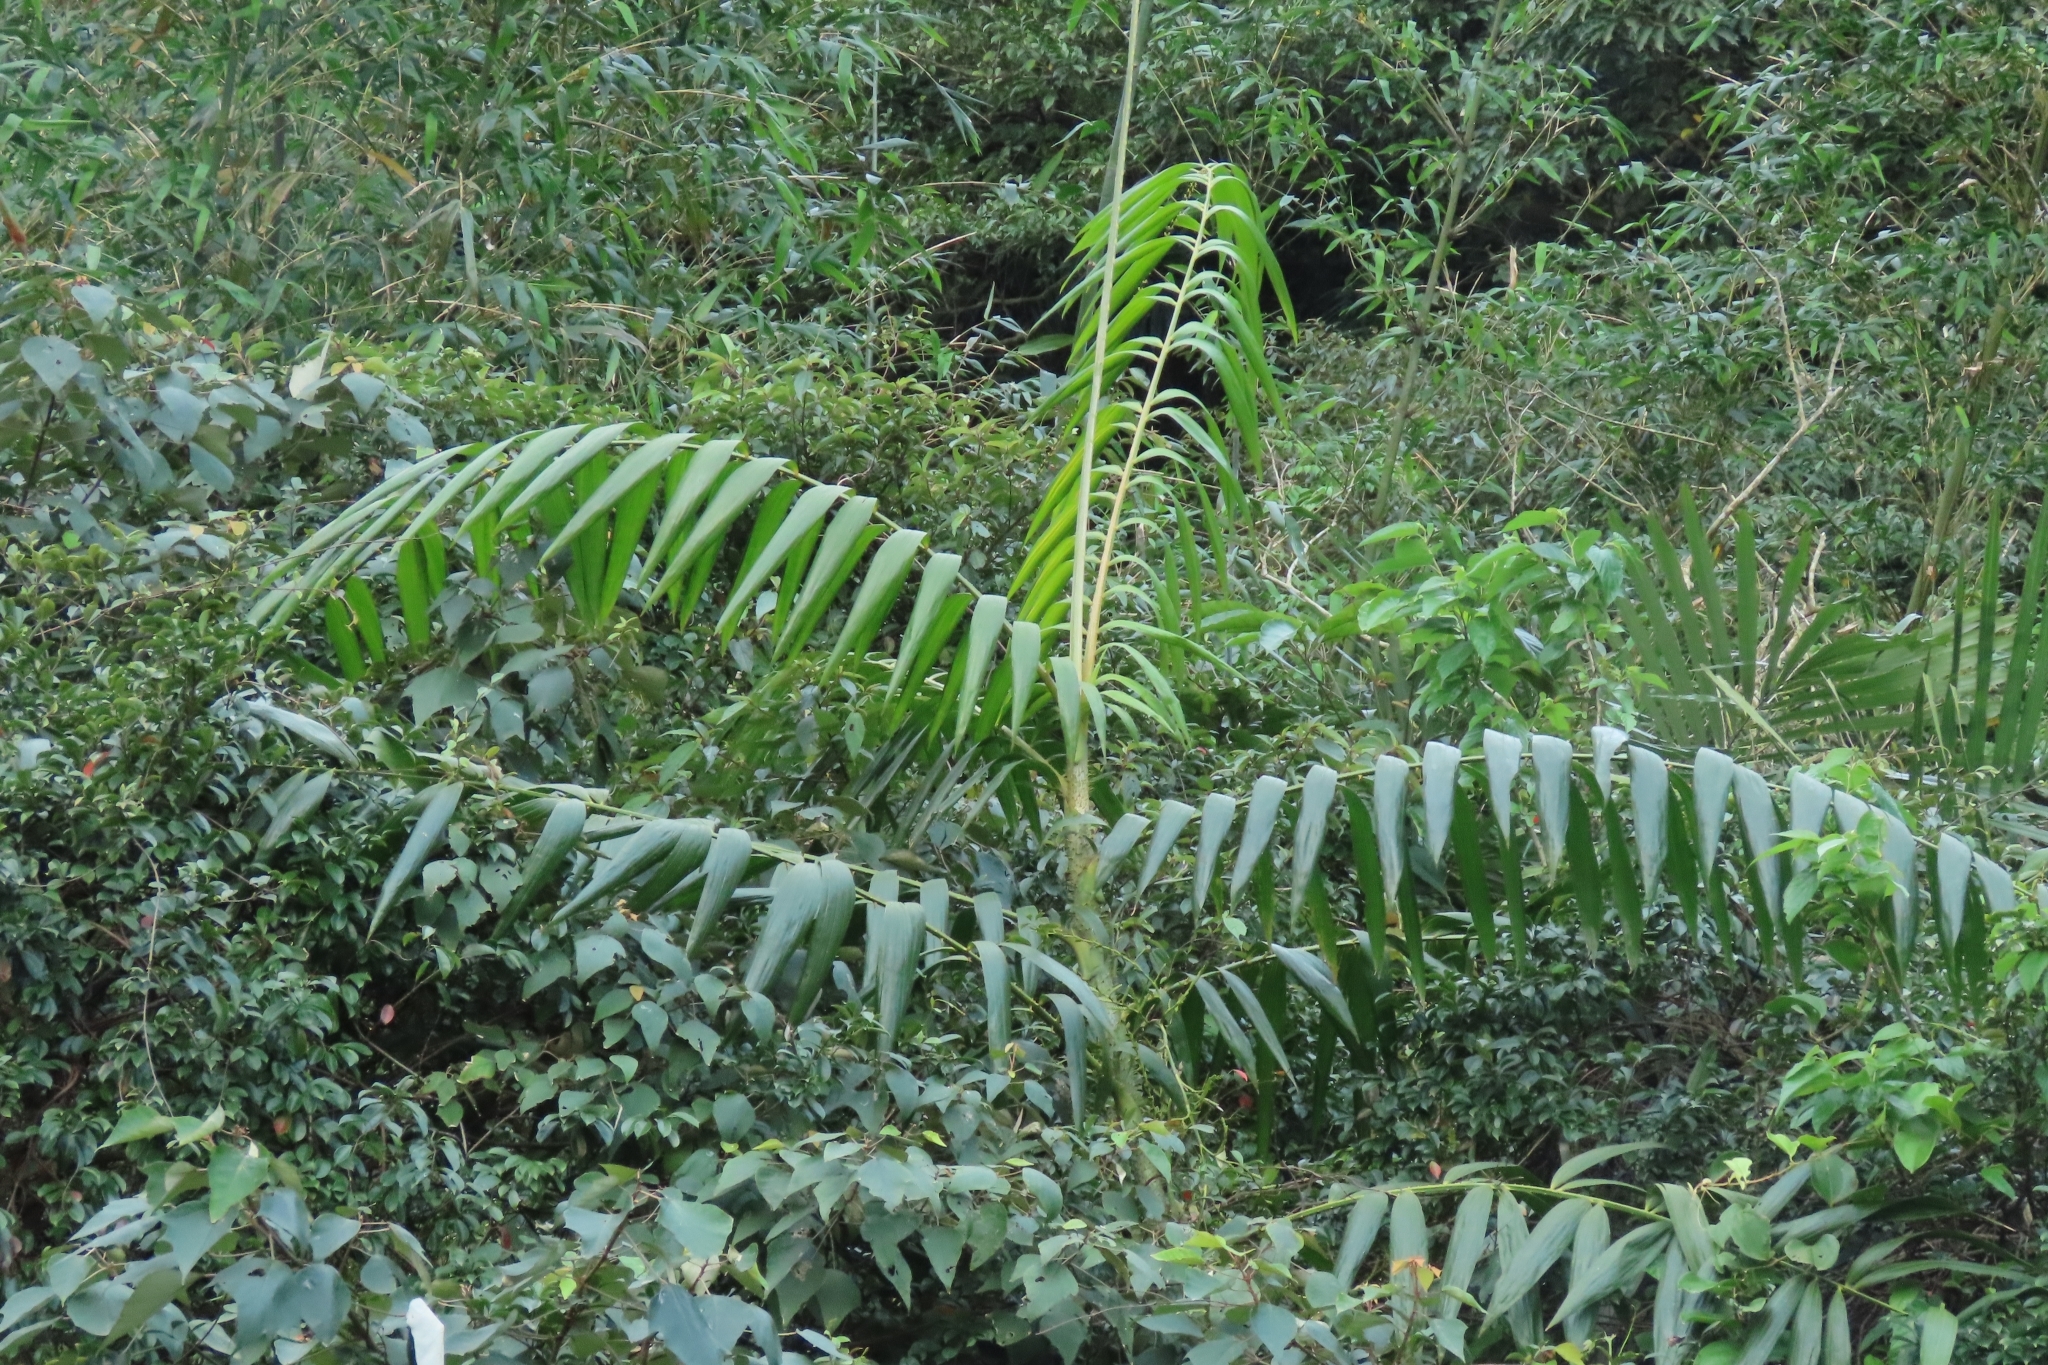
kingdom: Plantae
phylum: Tracheophyta
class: Liliopsida
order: Arecales
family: Arecaceae
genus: Calamus
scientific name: Calamus formosanus
